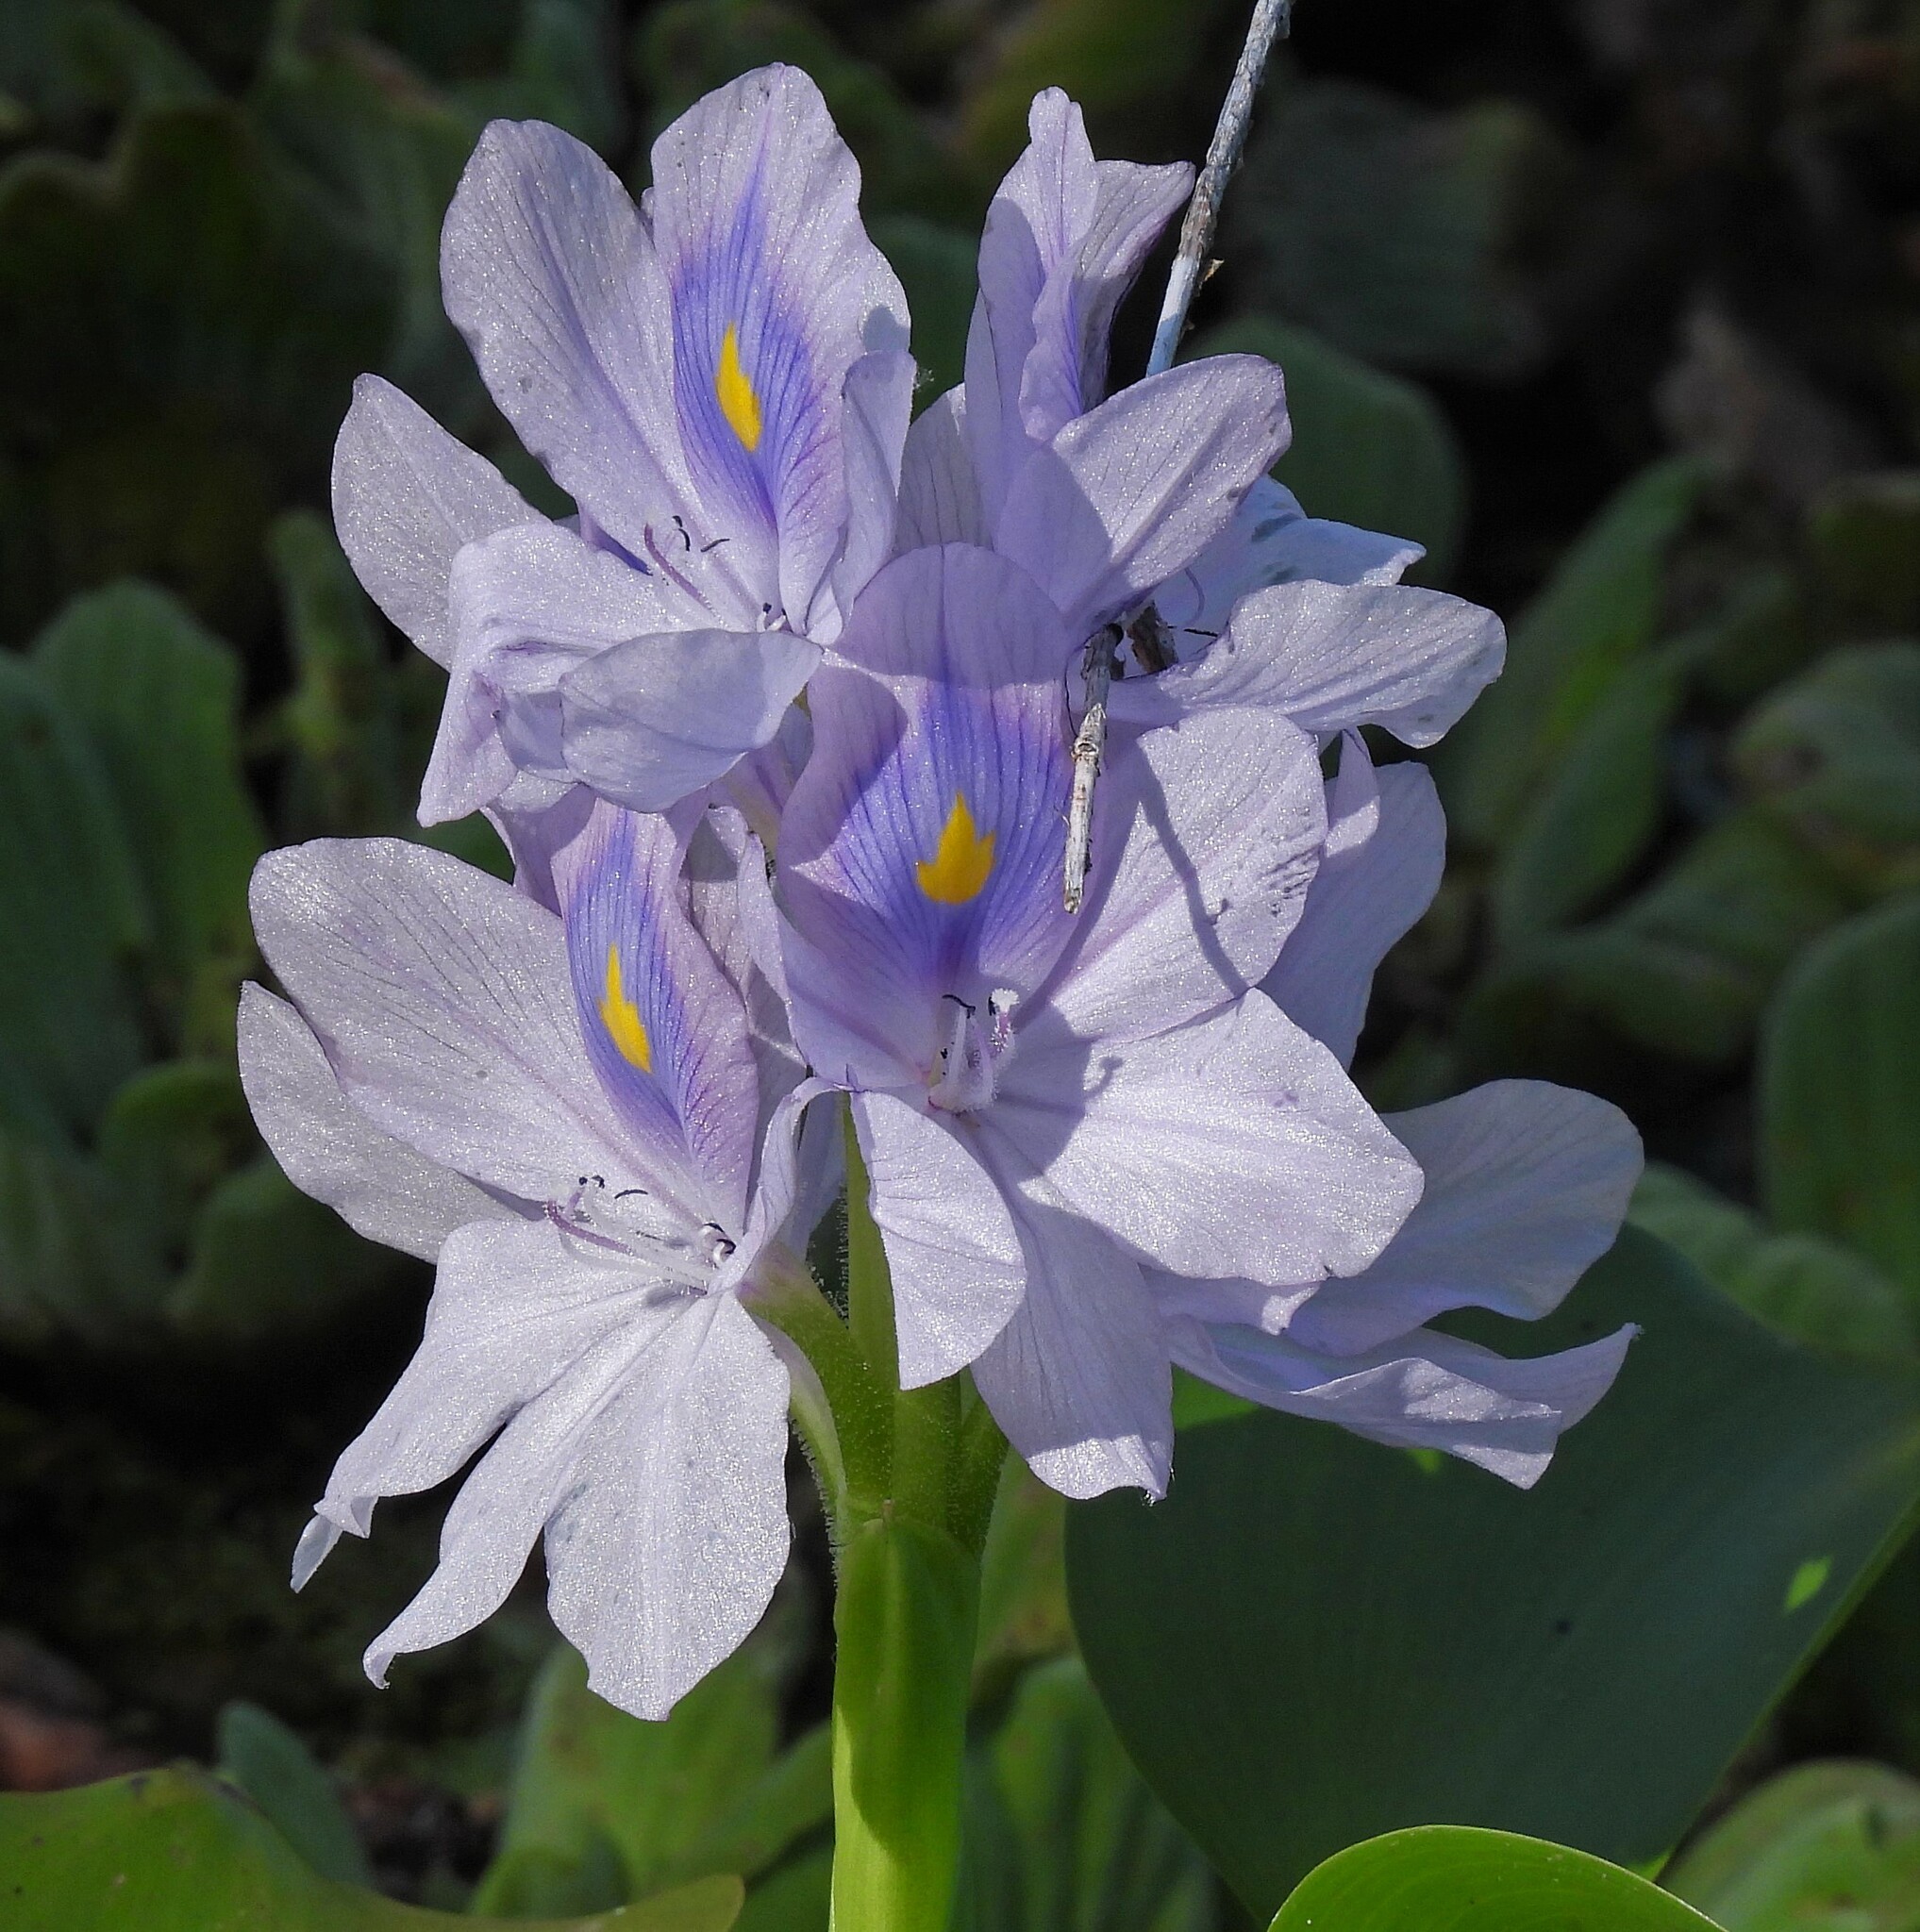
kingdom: Plantae
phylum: Tracheophyta
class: Liliopsida
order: Commelinales
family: Pontederiaceae
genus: Pontederia
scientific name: Pontederia crassipes
